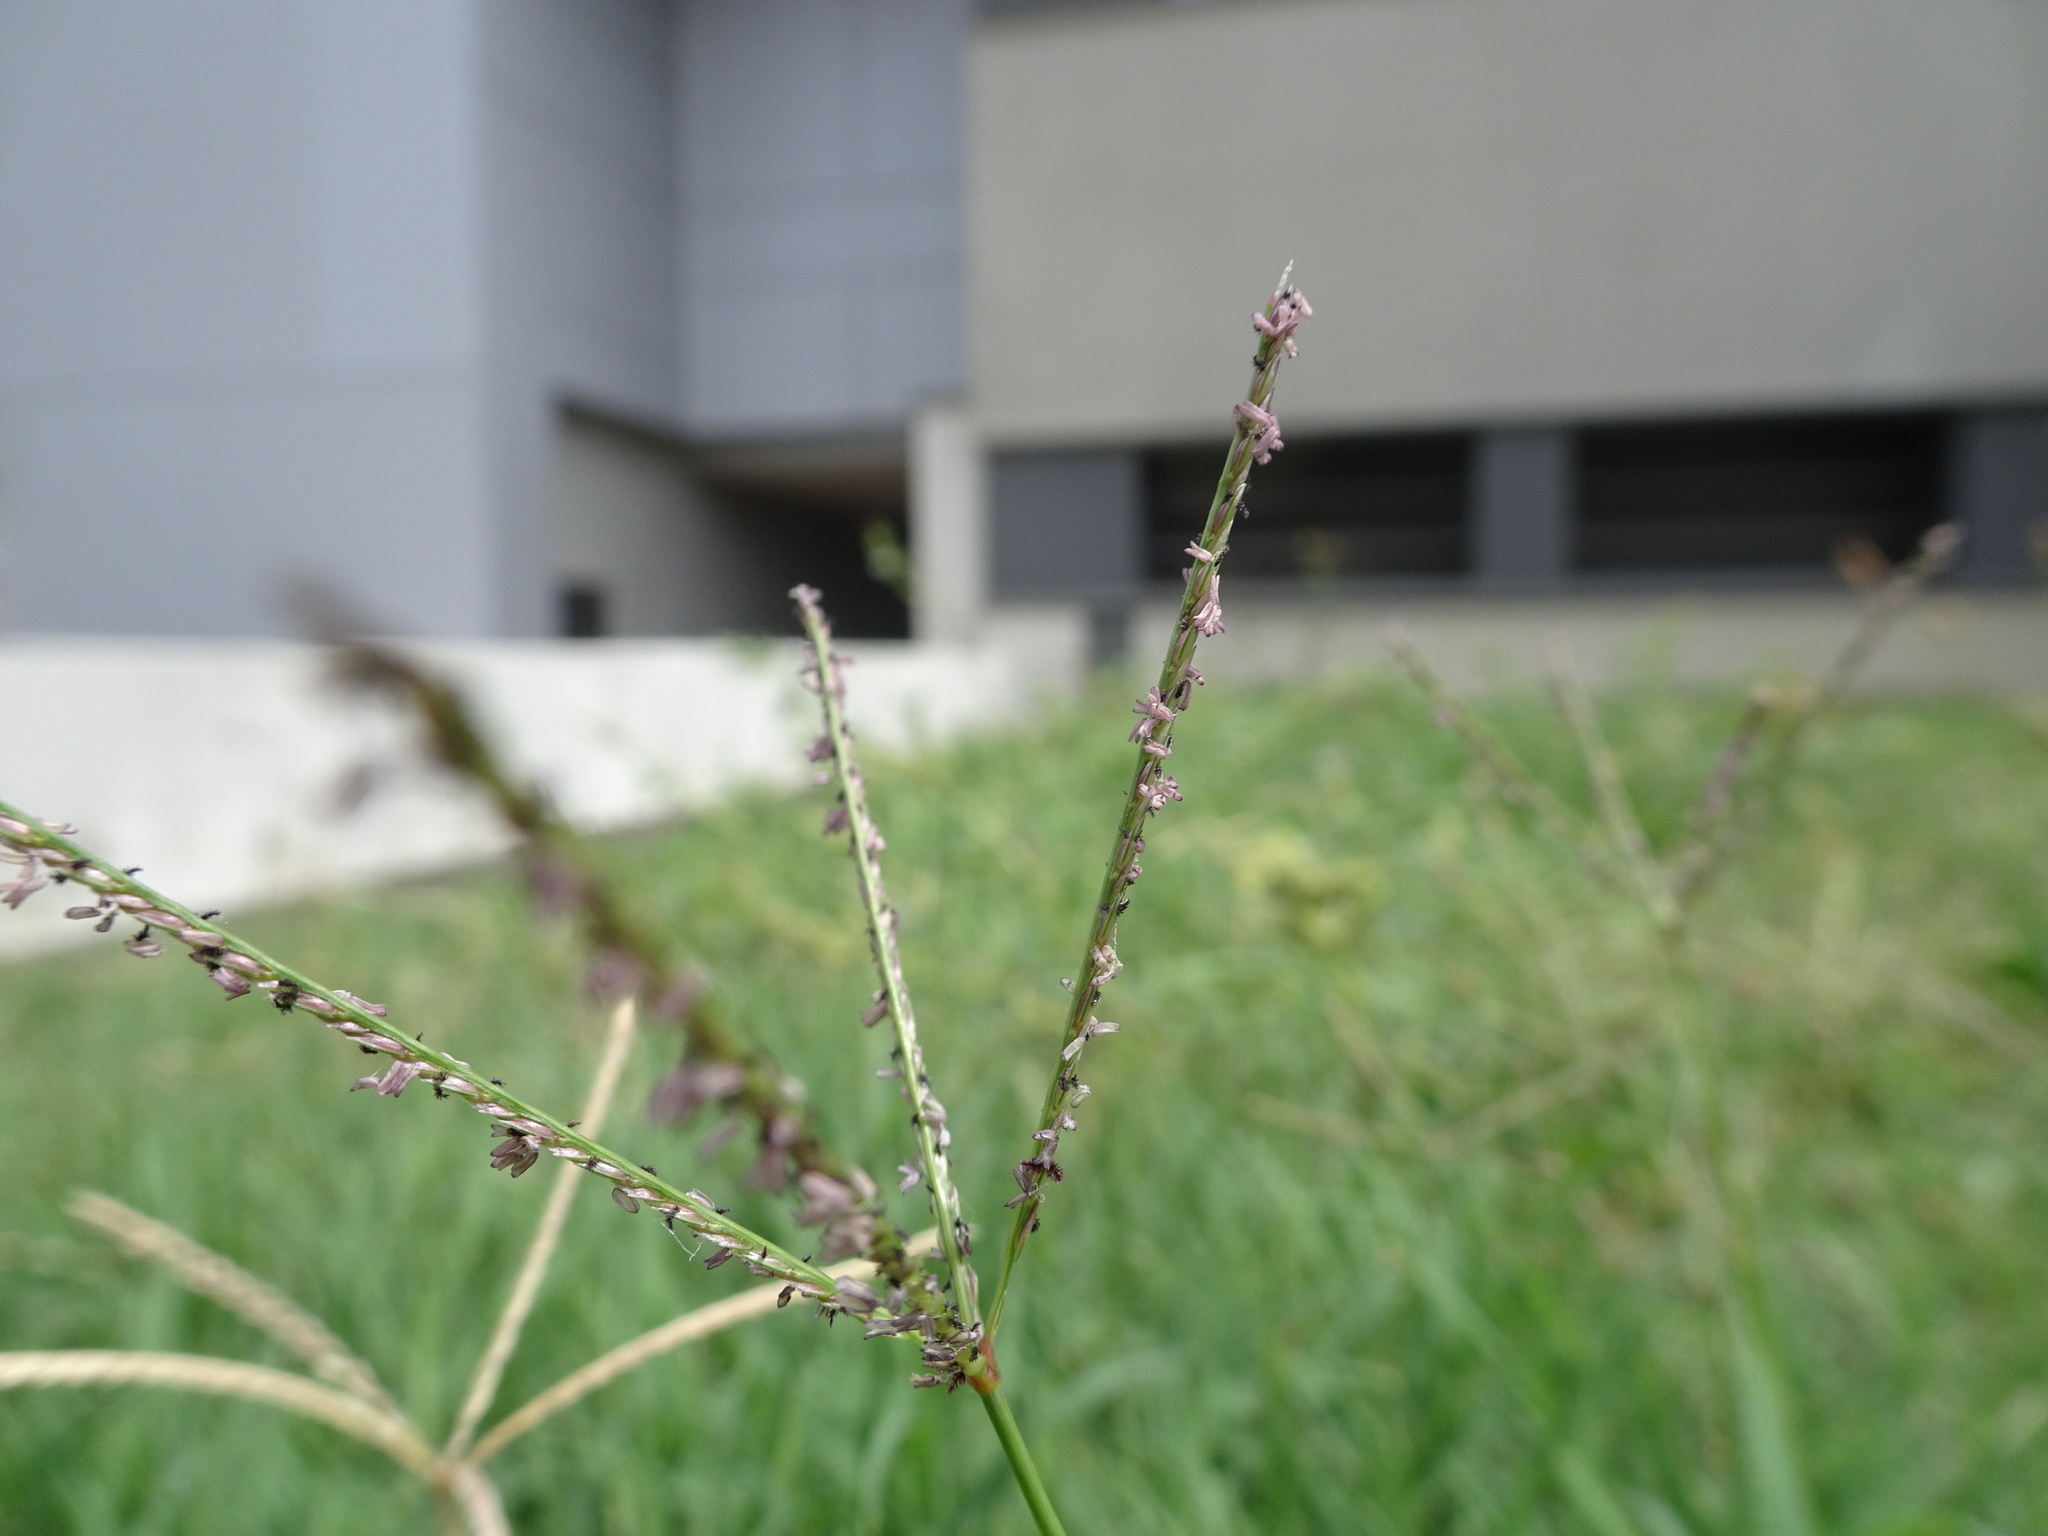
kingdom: Plantae
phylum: Tracheophyta
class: Liliopsida
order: Poales
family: Poaceae
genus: Cynodon
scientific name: Cynodon dactylon
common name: Bermuda grass
